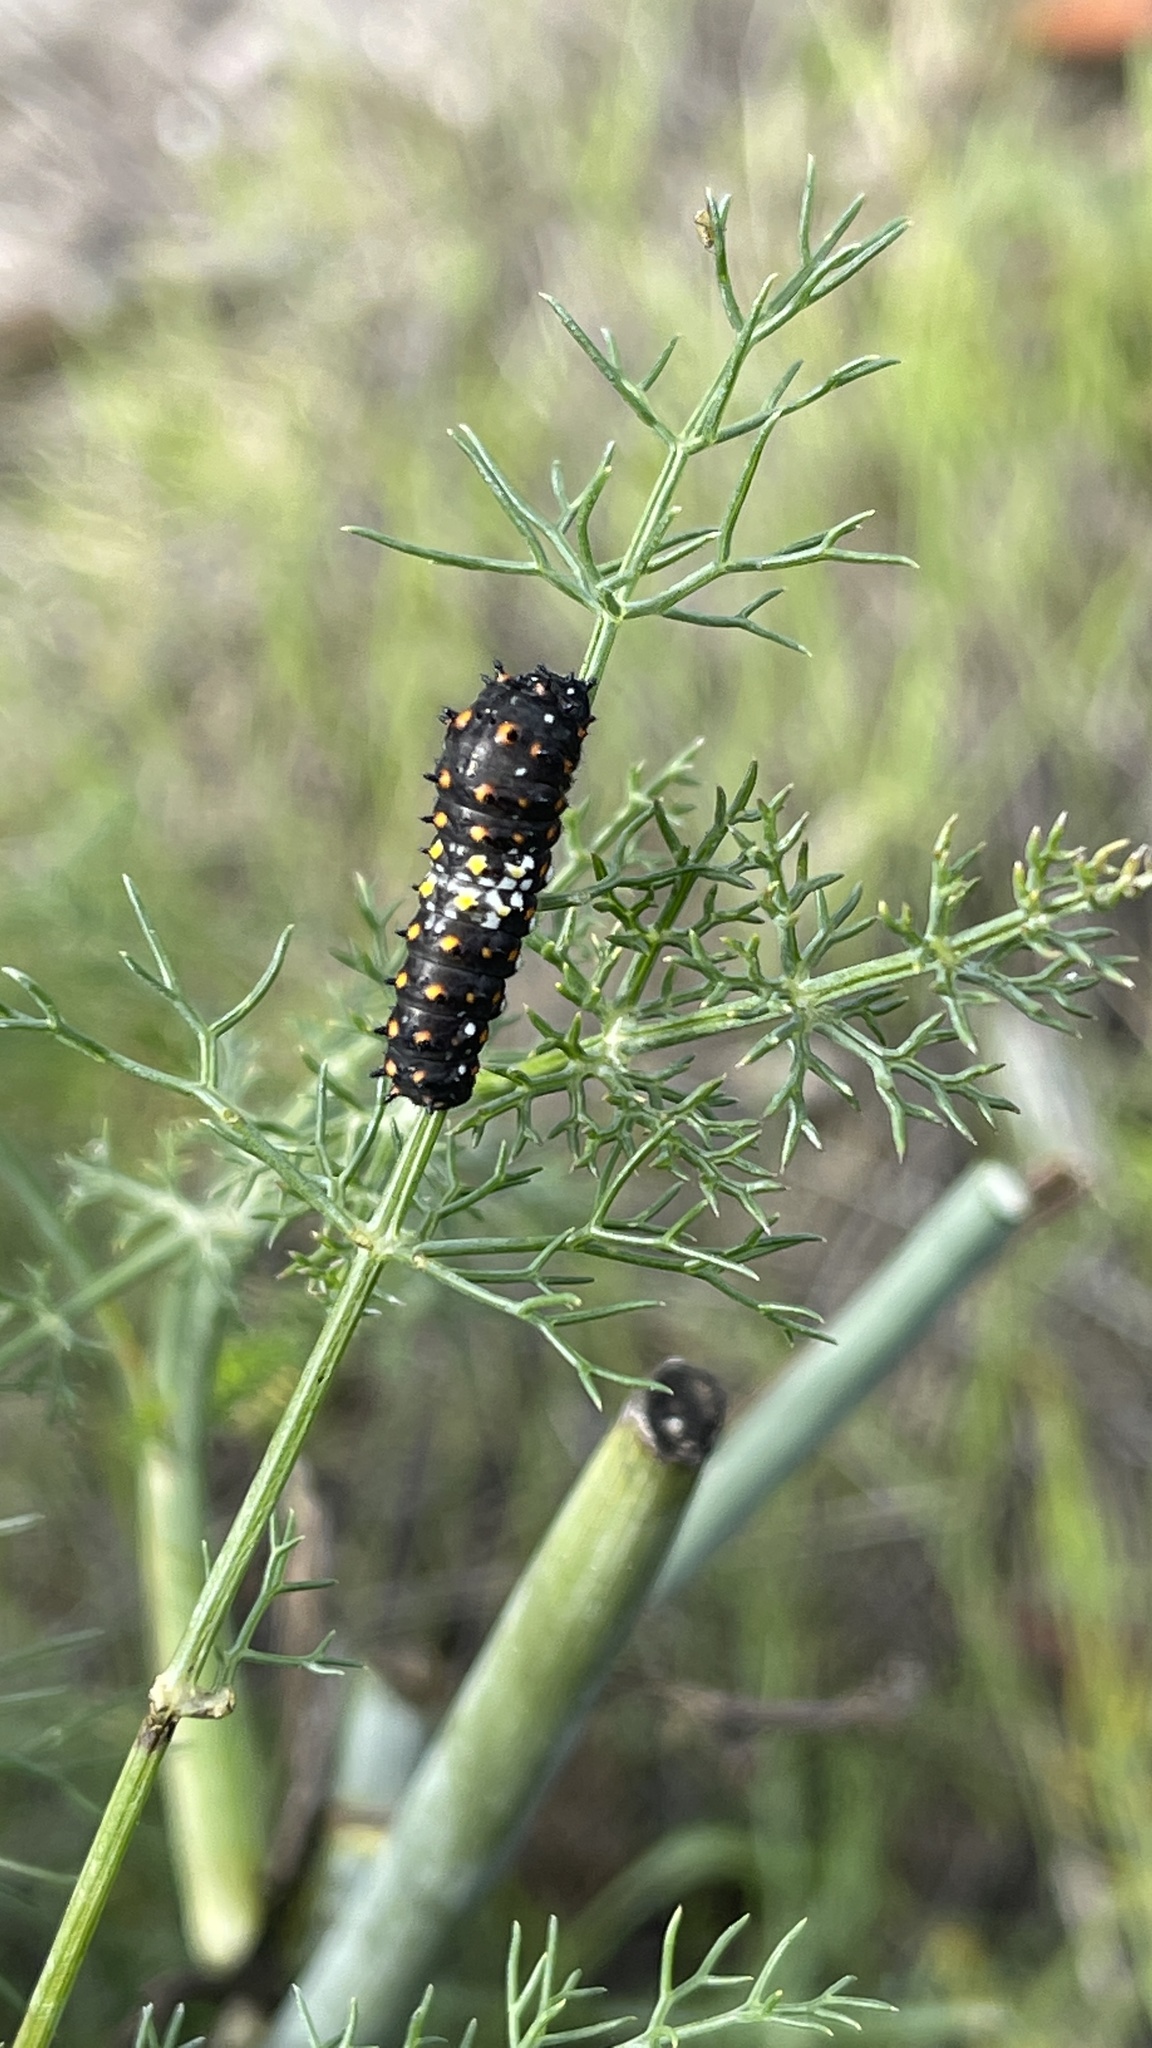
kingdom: Animalia
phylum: Arthropoda
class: Insecta
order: Lepidoptera
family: Papilionidae
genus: Papilio
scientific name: Papilio zelicaon
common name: Anise swallowtail
